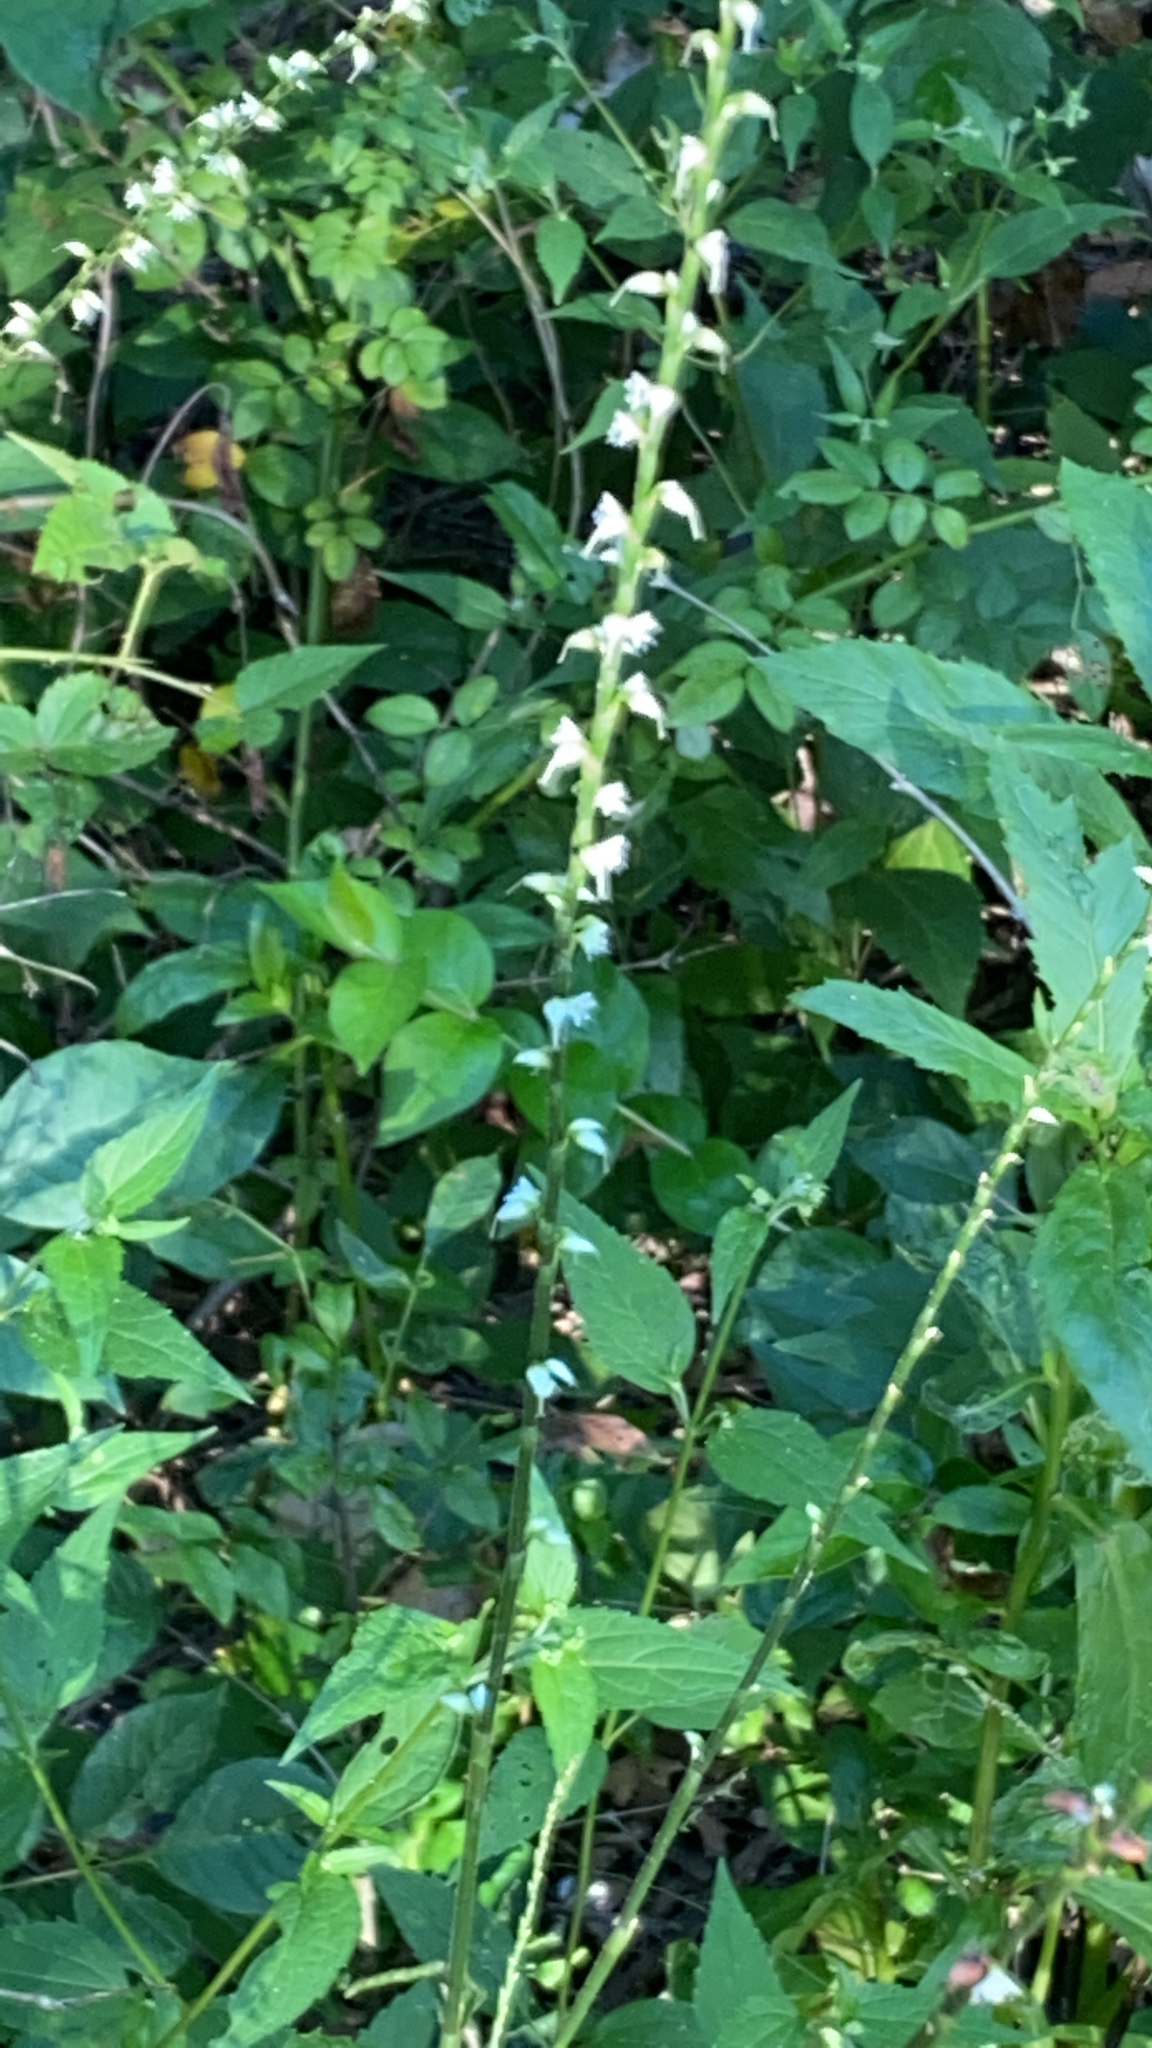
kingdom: Plantae
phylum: Tracheophyta
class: Magnoliopsida
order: Caryophyllales
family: Polygonaceae
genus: Persicaria
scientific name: Persicaria virginiana
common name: Jumpseed
